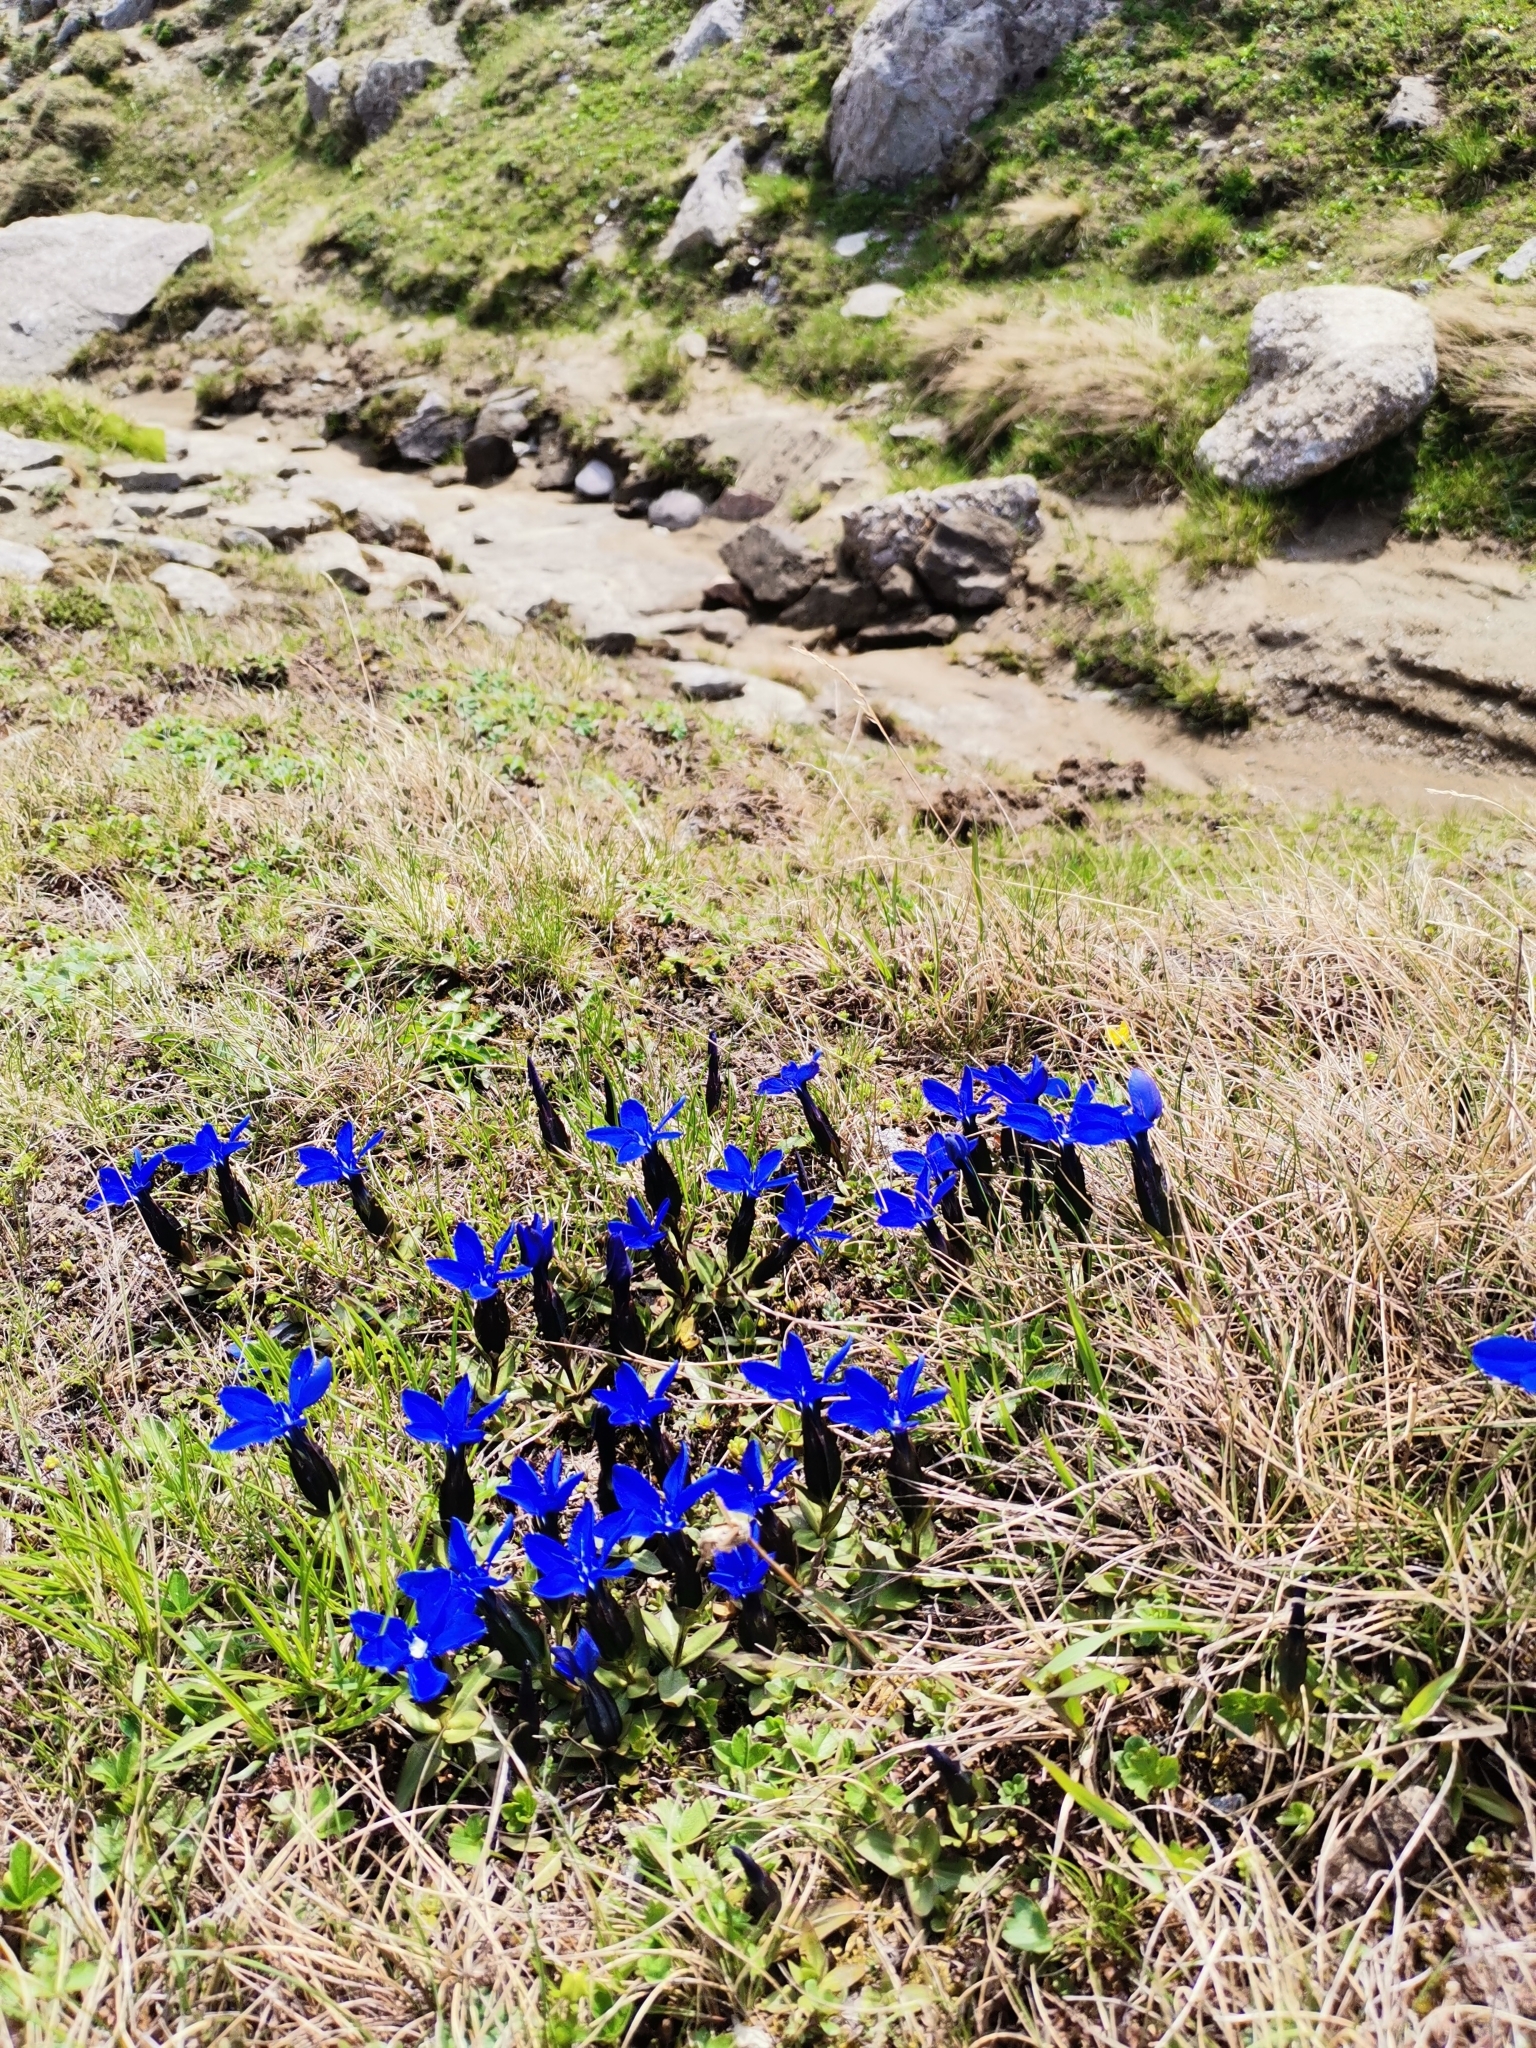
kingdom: Plantae
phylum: Tracheophyta
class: Magnoliopsida
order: Gentianales
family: Gentianaceae
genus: Gentiana
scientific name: Gentiana verna
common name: Spring gentian
